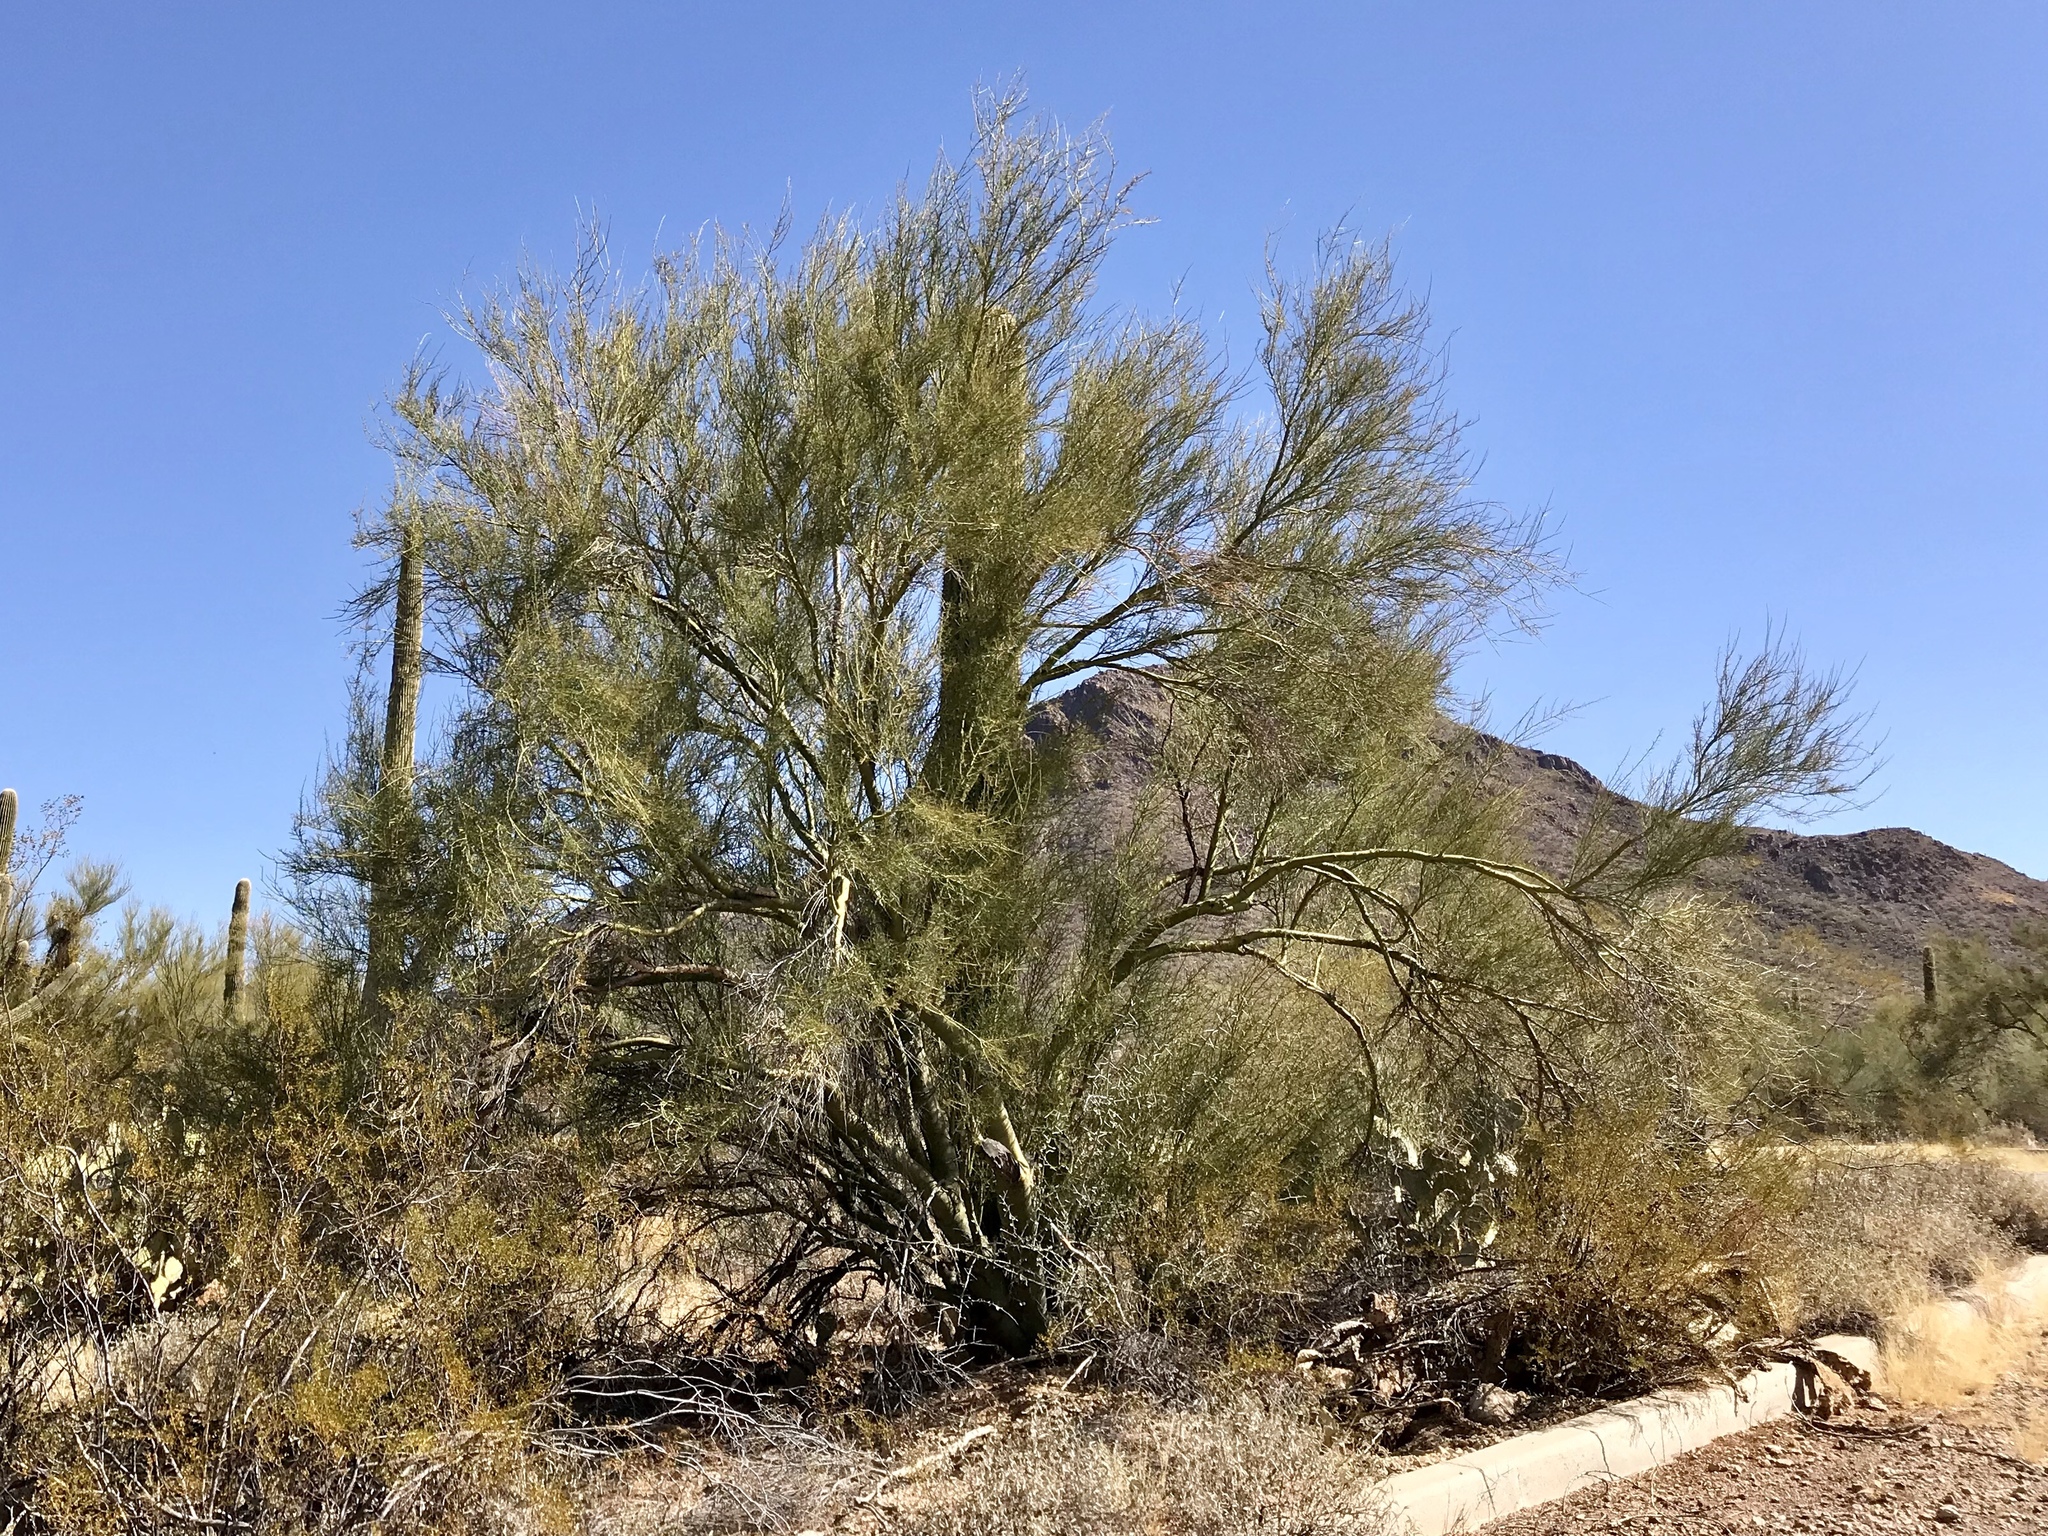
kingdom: Plantae
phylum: Tracheophyta
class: Magnoliopsida
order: Fabales
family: Fabaceae
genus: Parkinsonia
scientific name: Parkinsonia microphylla
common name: Yellow paloverde
